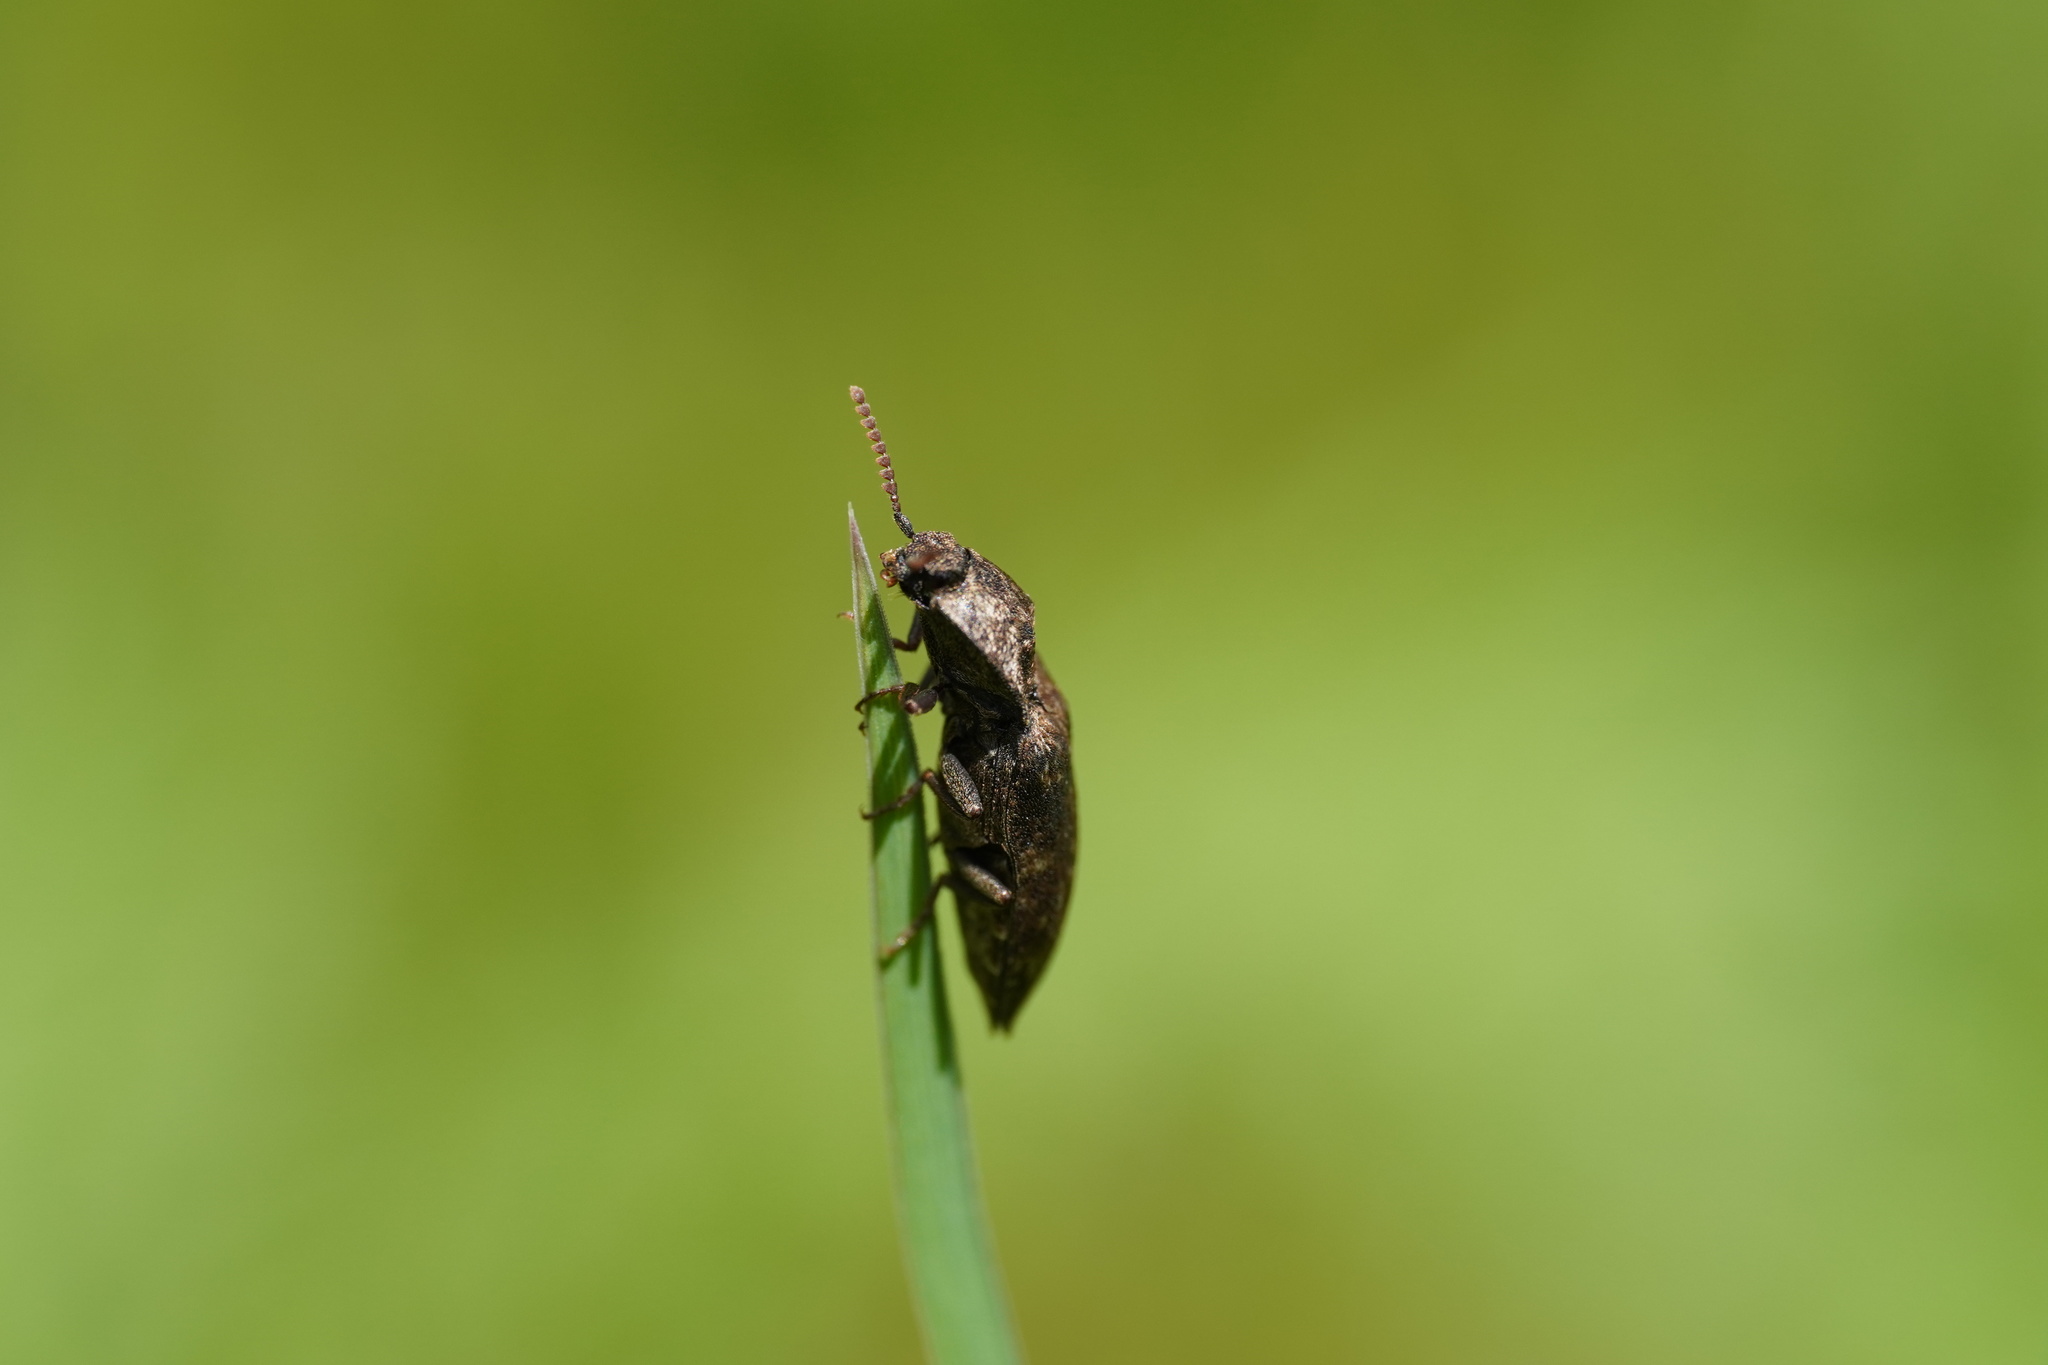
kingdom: Animalia
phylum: Arthropoda
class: Insecta
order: Coleoptera
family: Elateridae
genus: Agrypnus
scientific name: Agrypnus murinus
